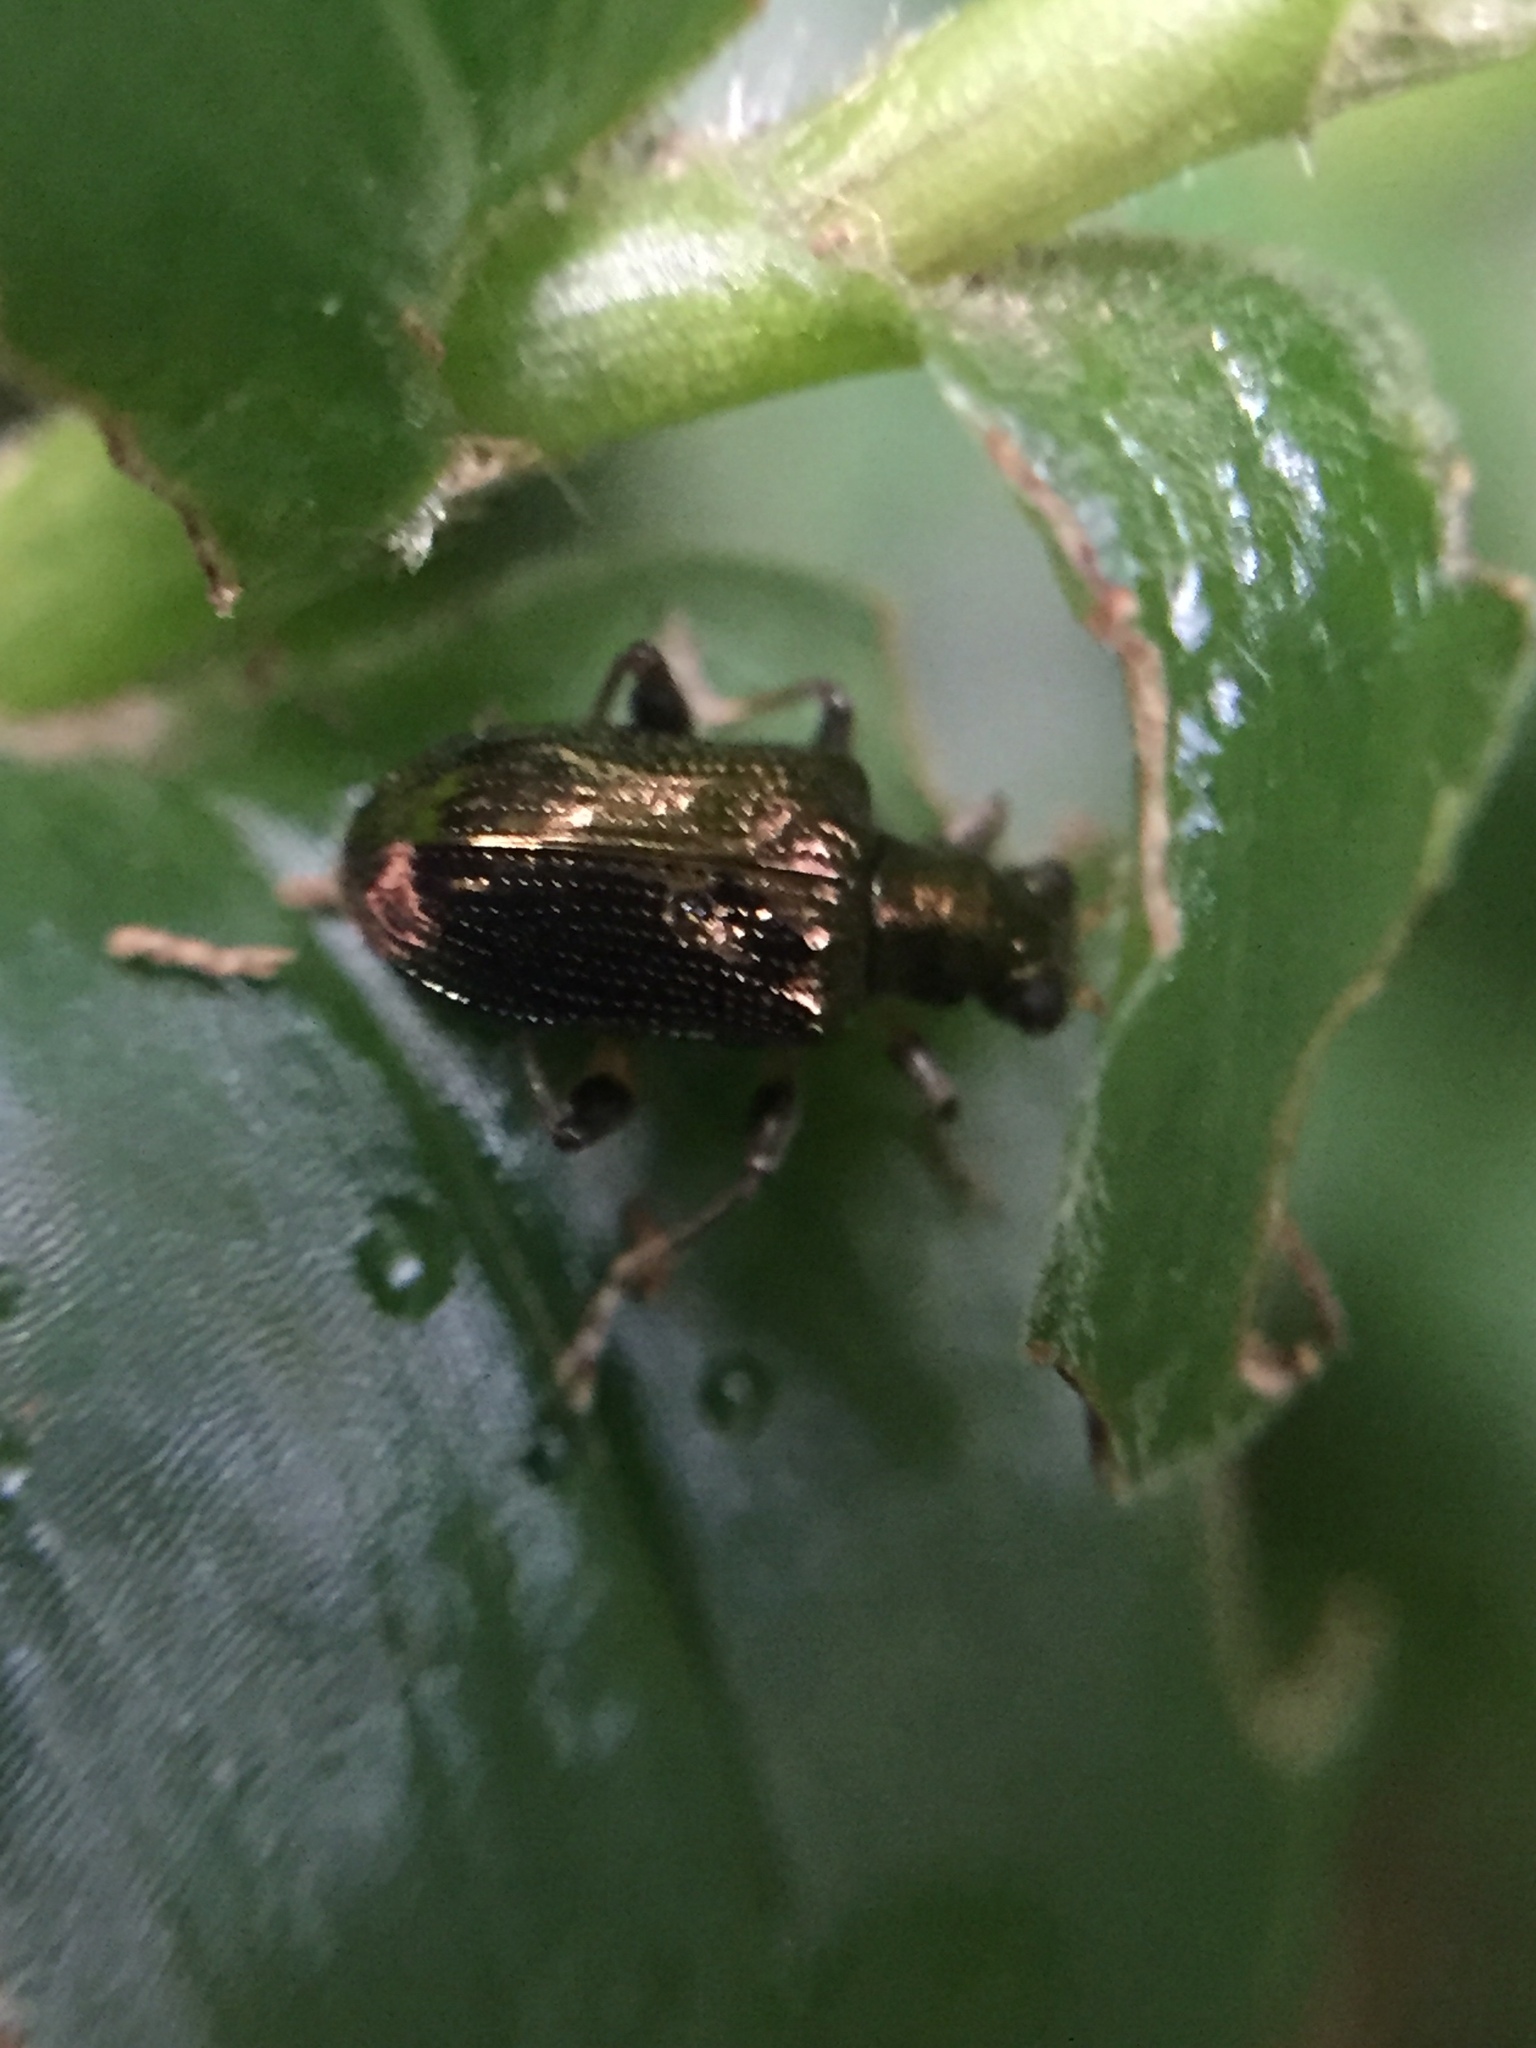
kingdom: Animalia
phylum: Arthropoda
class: Insecta
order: Coleoptera
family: Chrysomelidae
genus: Neolema
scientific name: Neolema ogloblini
